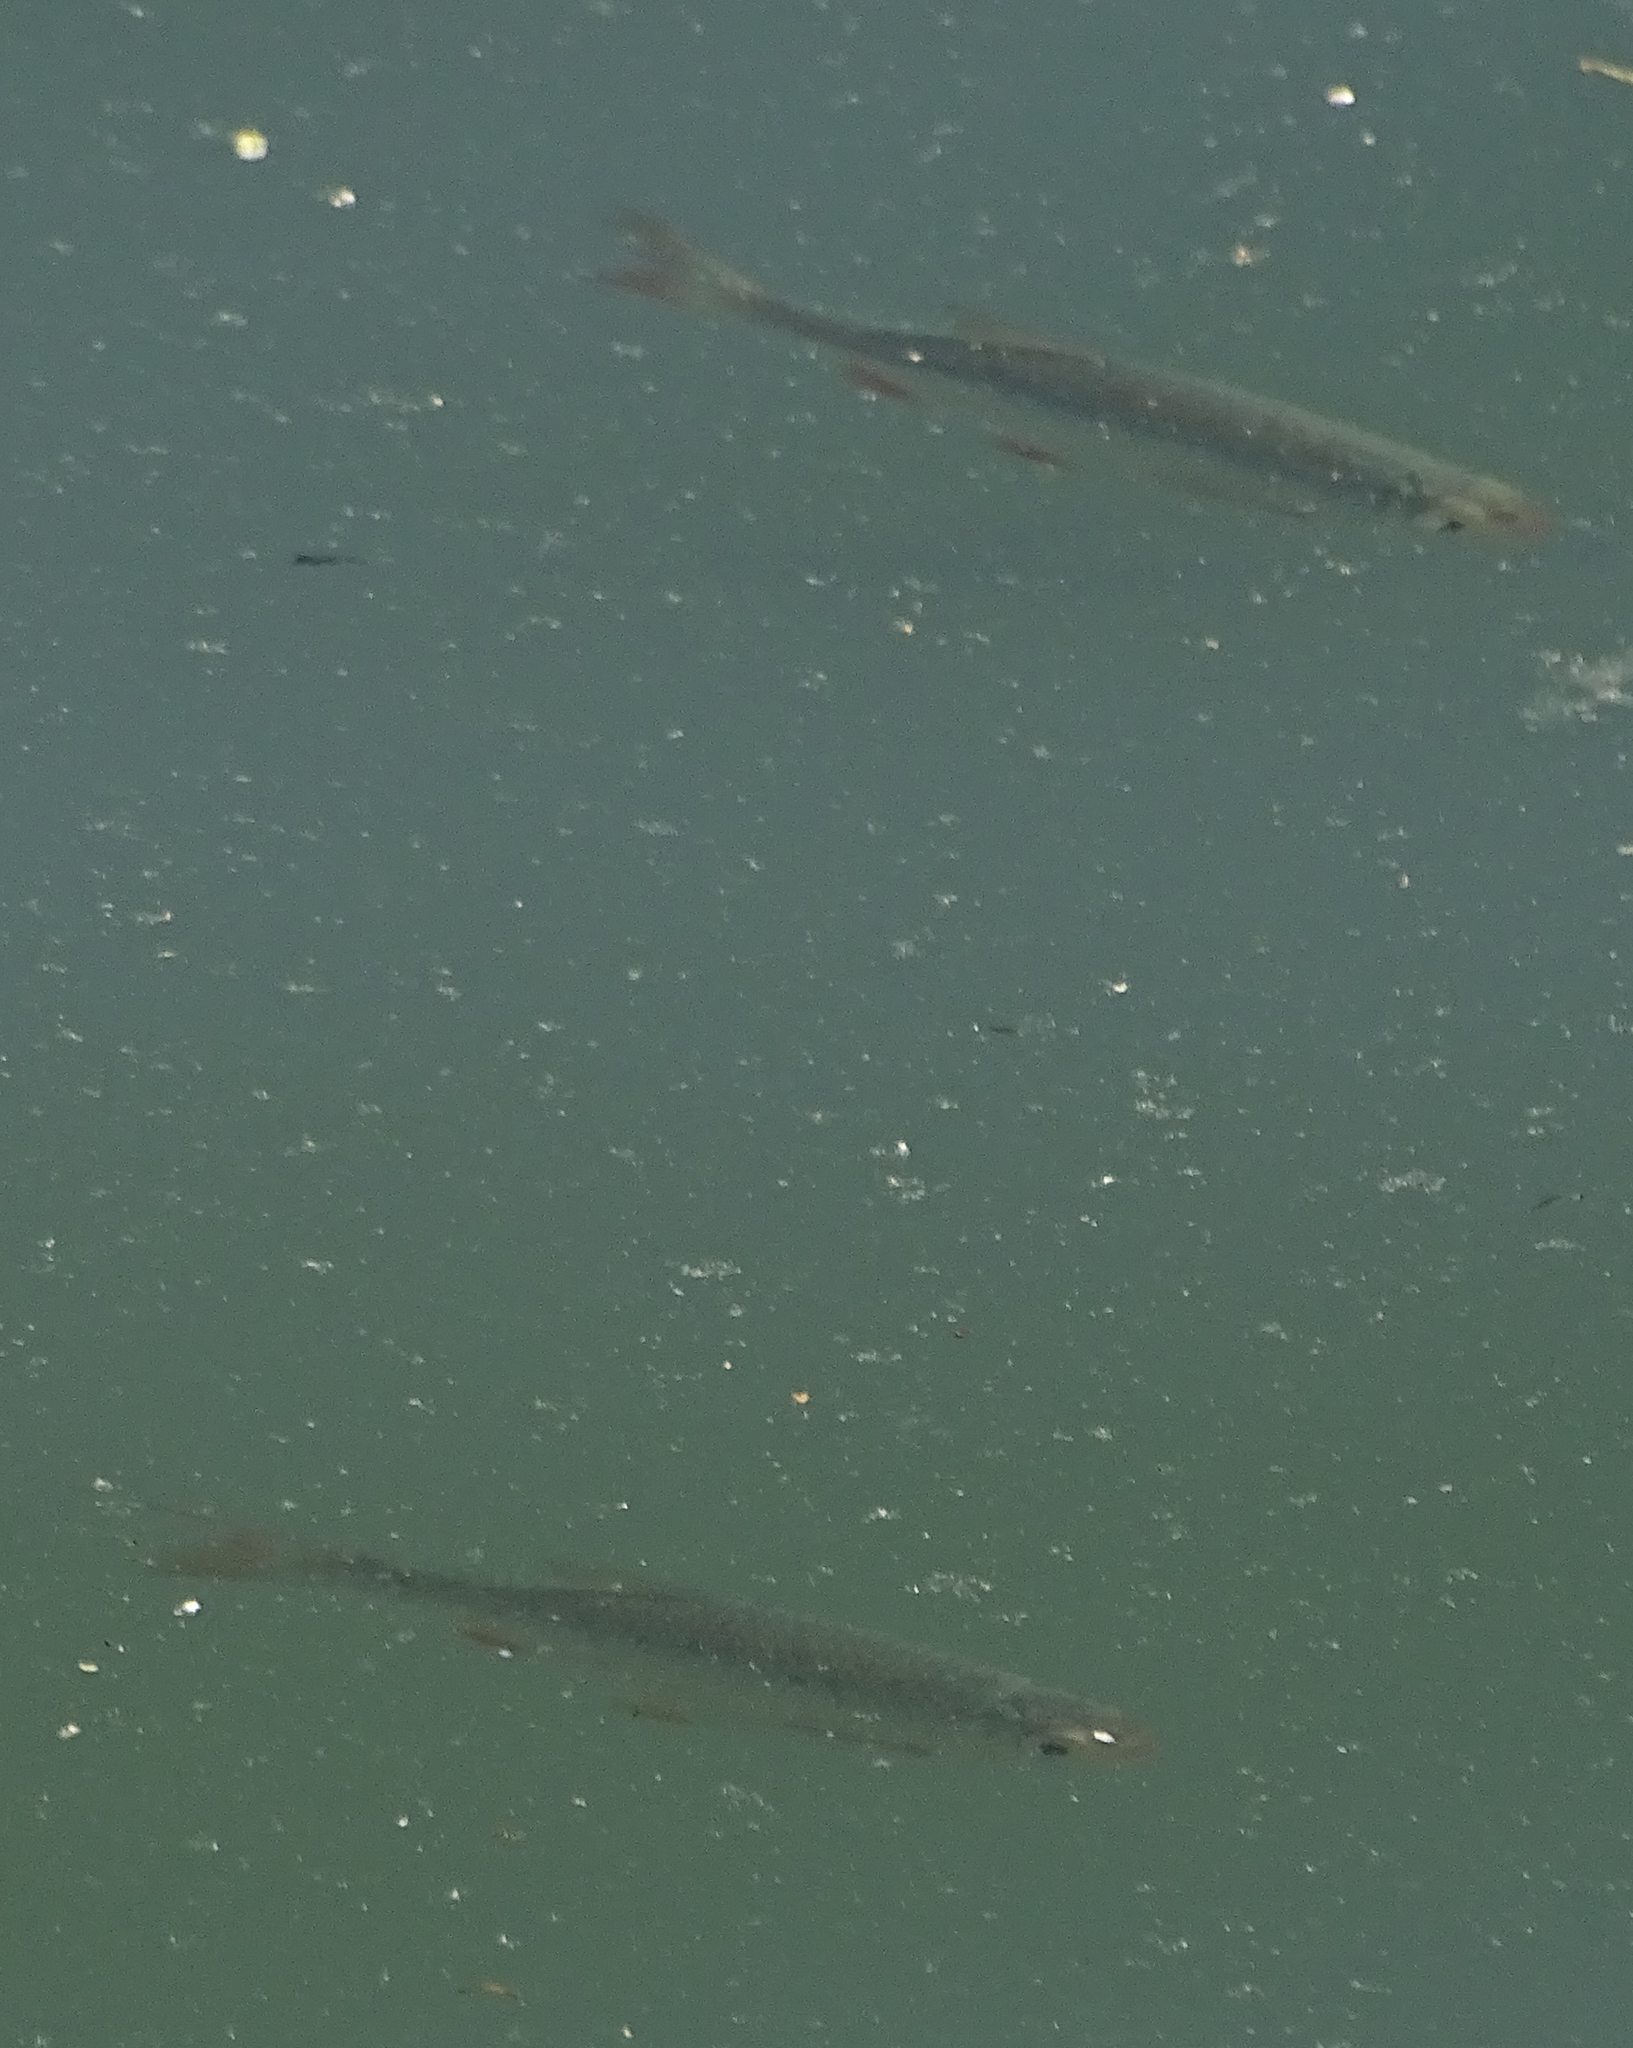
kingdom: Animalia
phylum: Chordata
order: Cypriniformes
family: Cyprinidae
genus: Scardinius
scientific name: Scardinius erythrophthalmus
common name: Rudd
